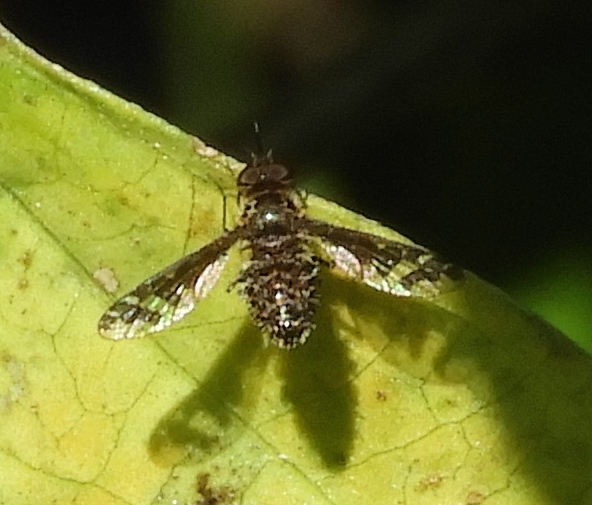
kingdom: Animalia
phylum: Arthropoda
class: Insecta
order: Diptera
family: Bombyliidae
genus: Lepidanthrax
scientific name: Lepidanthrax
